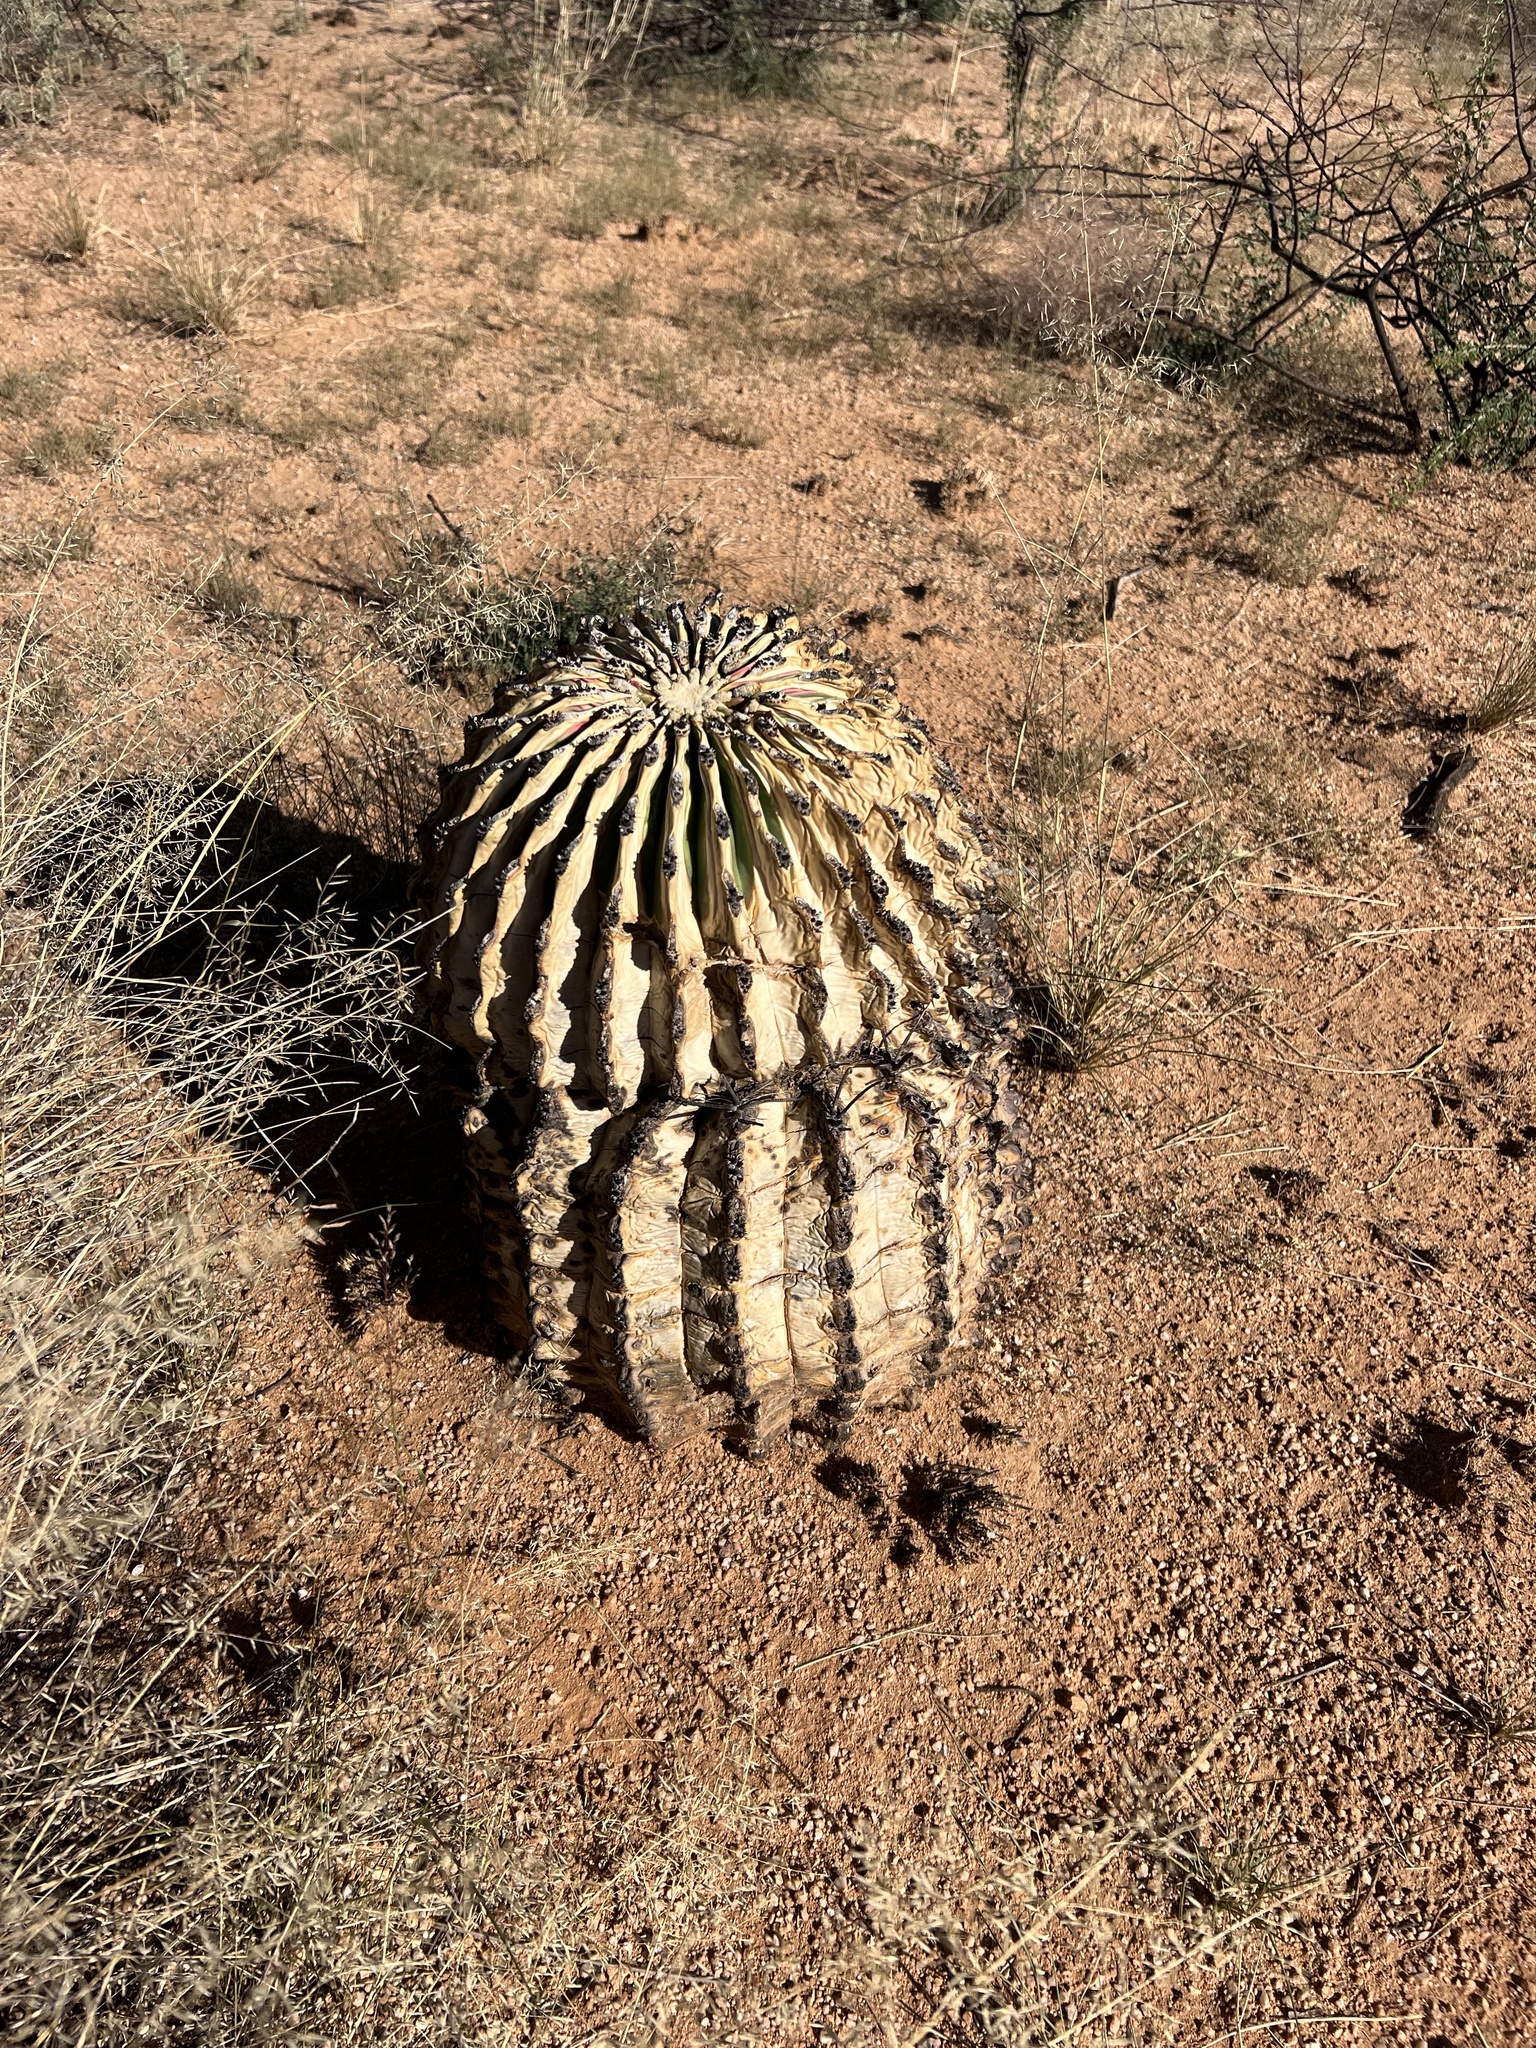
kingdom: Plantae
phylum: Tracheophyta
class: Magnoliopsida
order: Caryophyllales
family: Cactaceae
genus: Ferocactus
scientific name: Ferocactus wislizeni
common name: Candy barrel cactus
